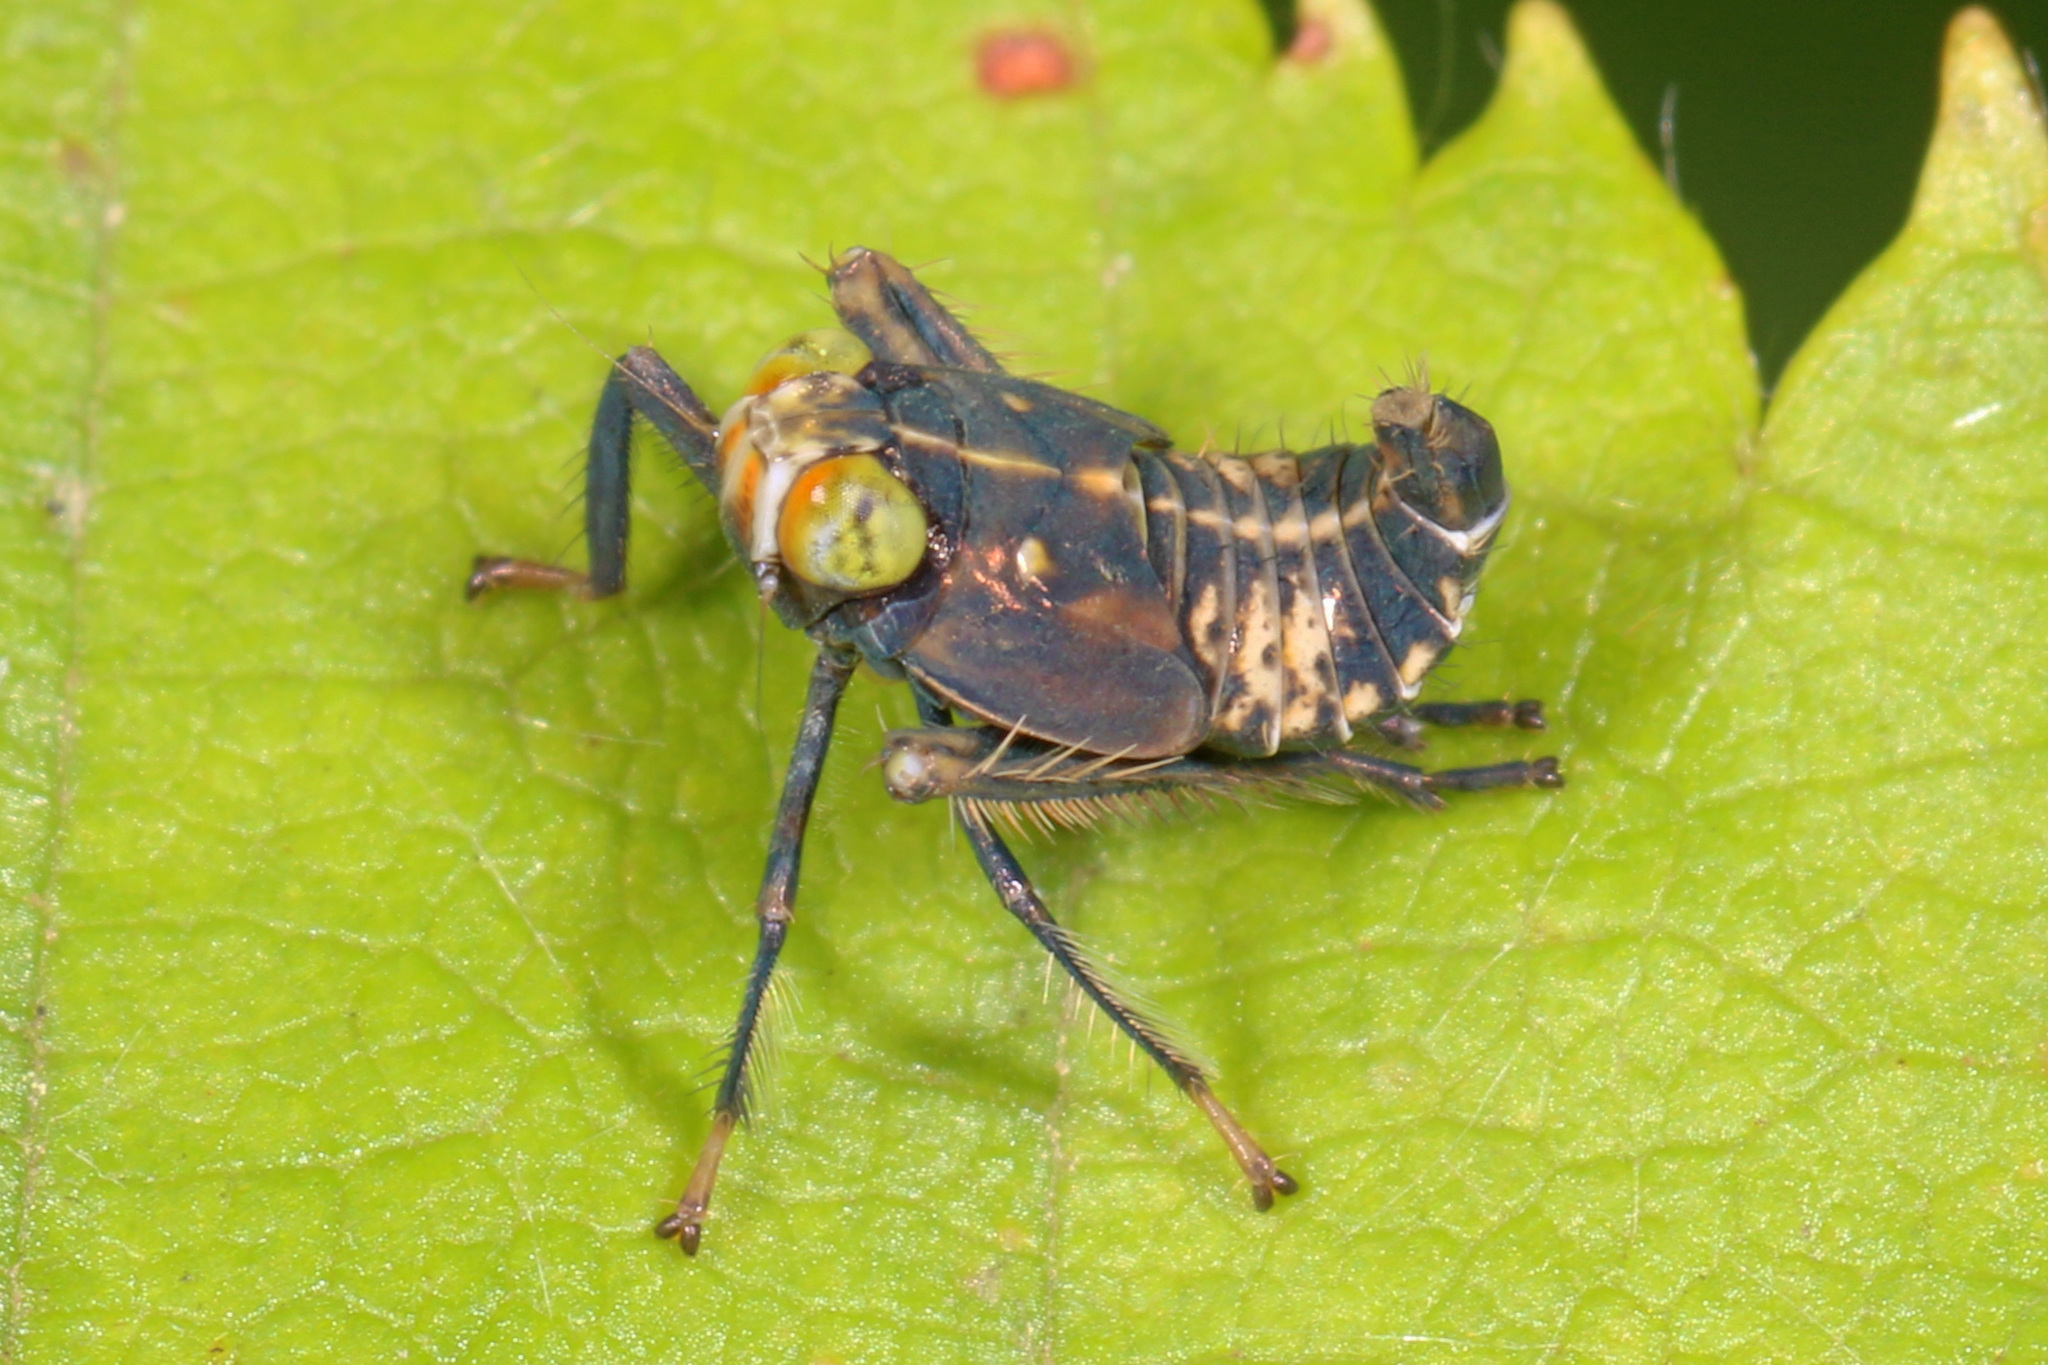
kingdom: Animalia
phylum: Arthropoda
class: Insecta
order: Hemiptera
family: Cicadellidae
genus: Jikradia
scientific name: Jikradia olitoria
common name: Coppery leafhopper
